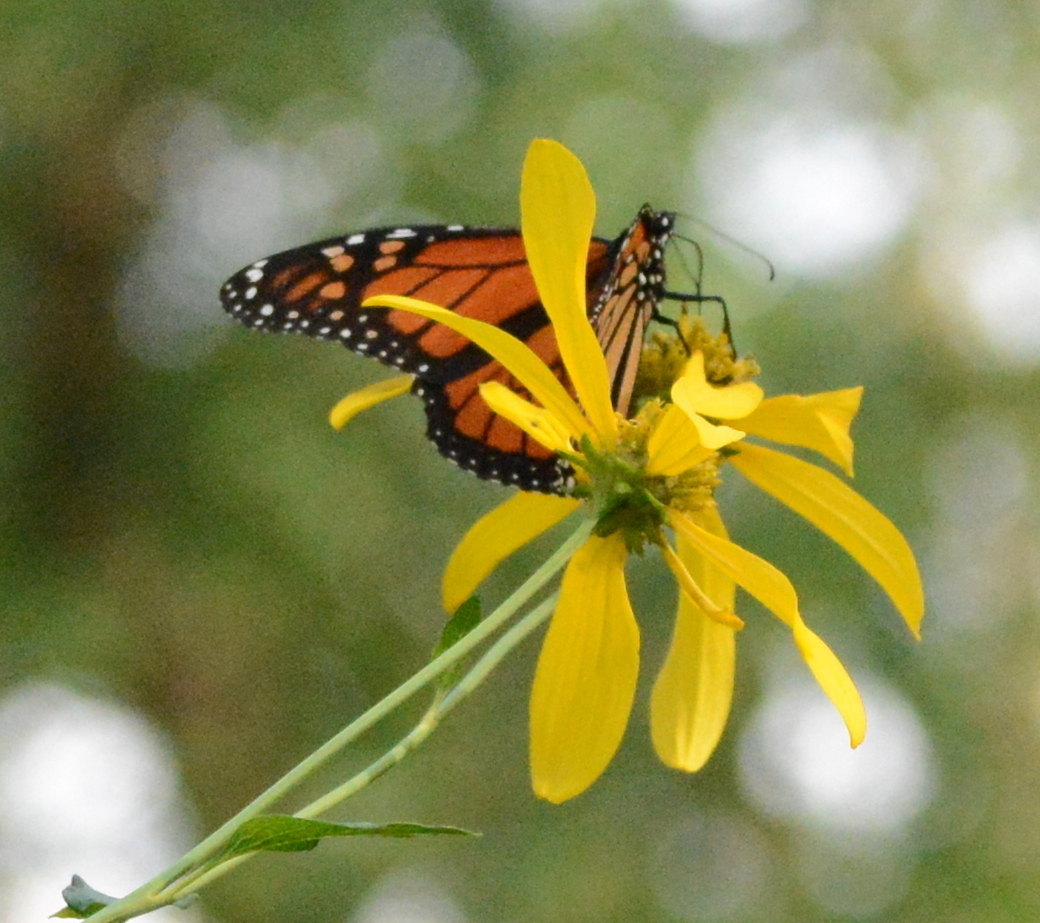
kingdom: Animalia
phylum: Arthropoda
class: Insecta
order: Lepidoptera
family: Nymphalidae
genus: Danaus
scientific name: Danaus plexippus
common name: Monarch
